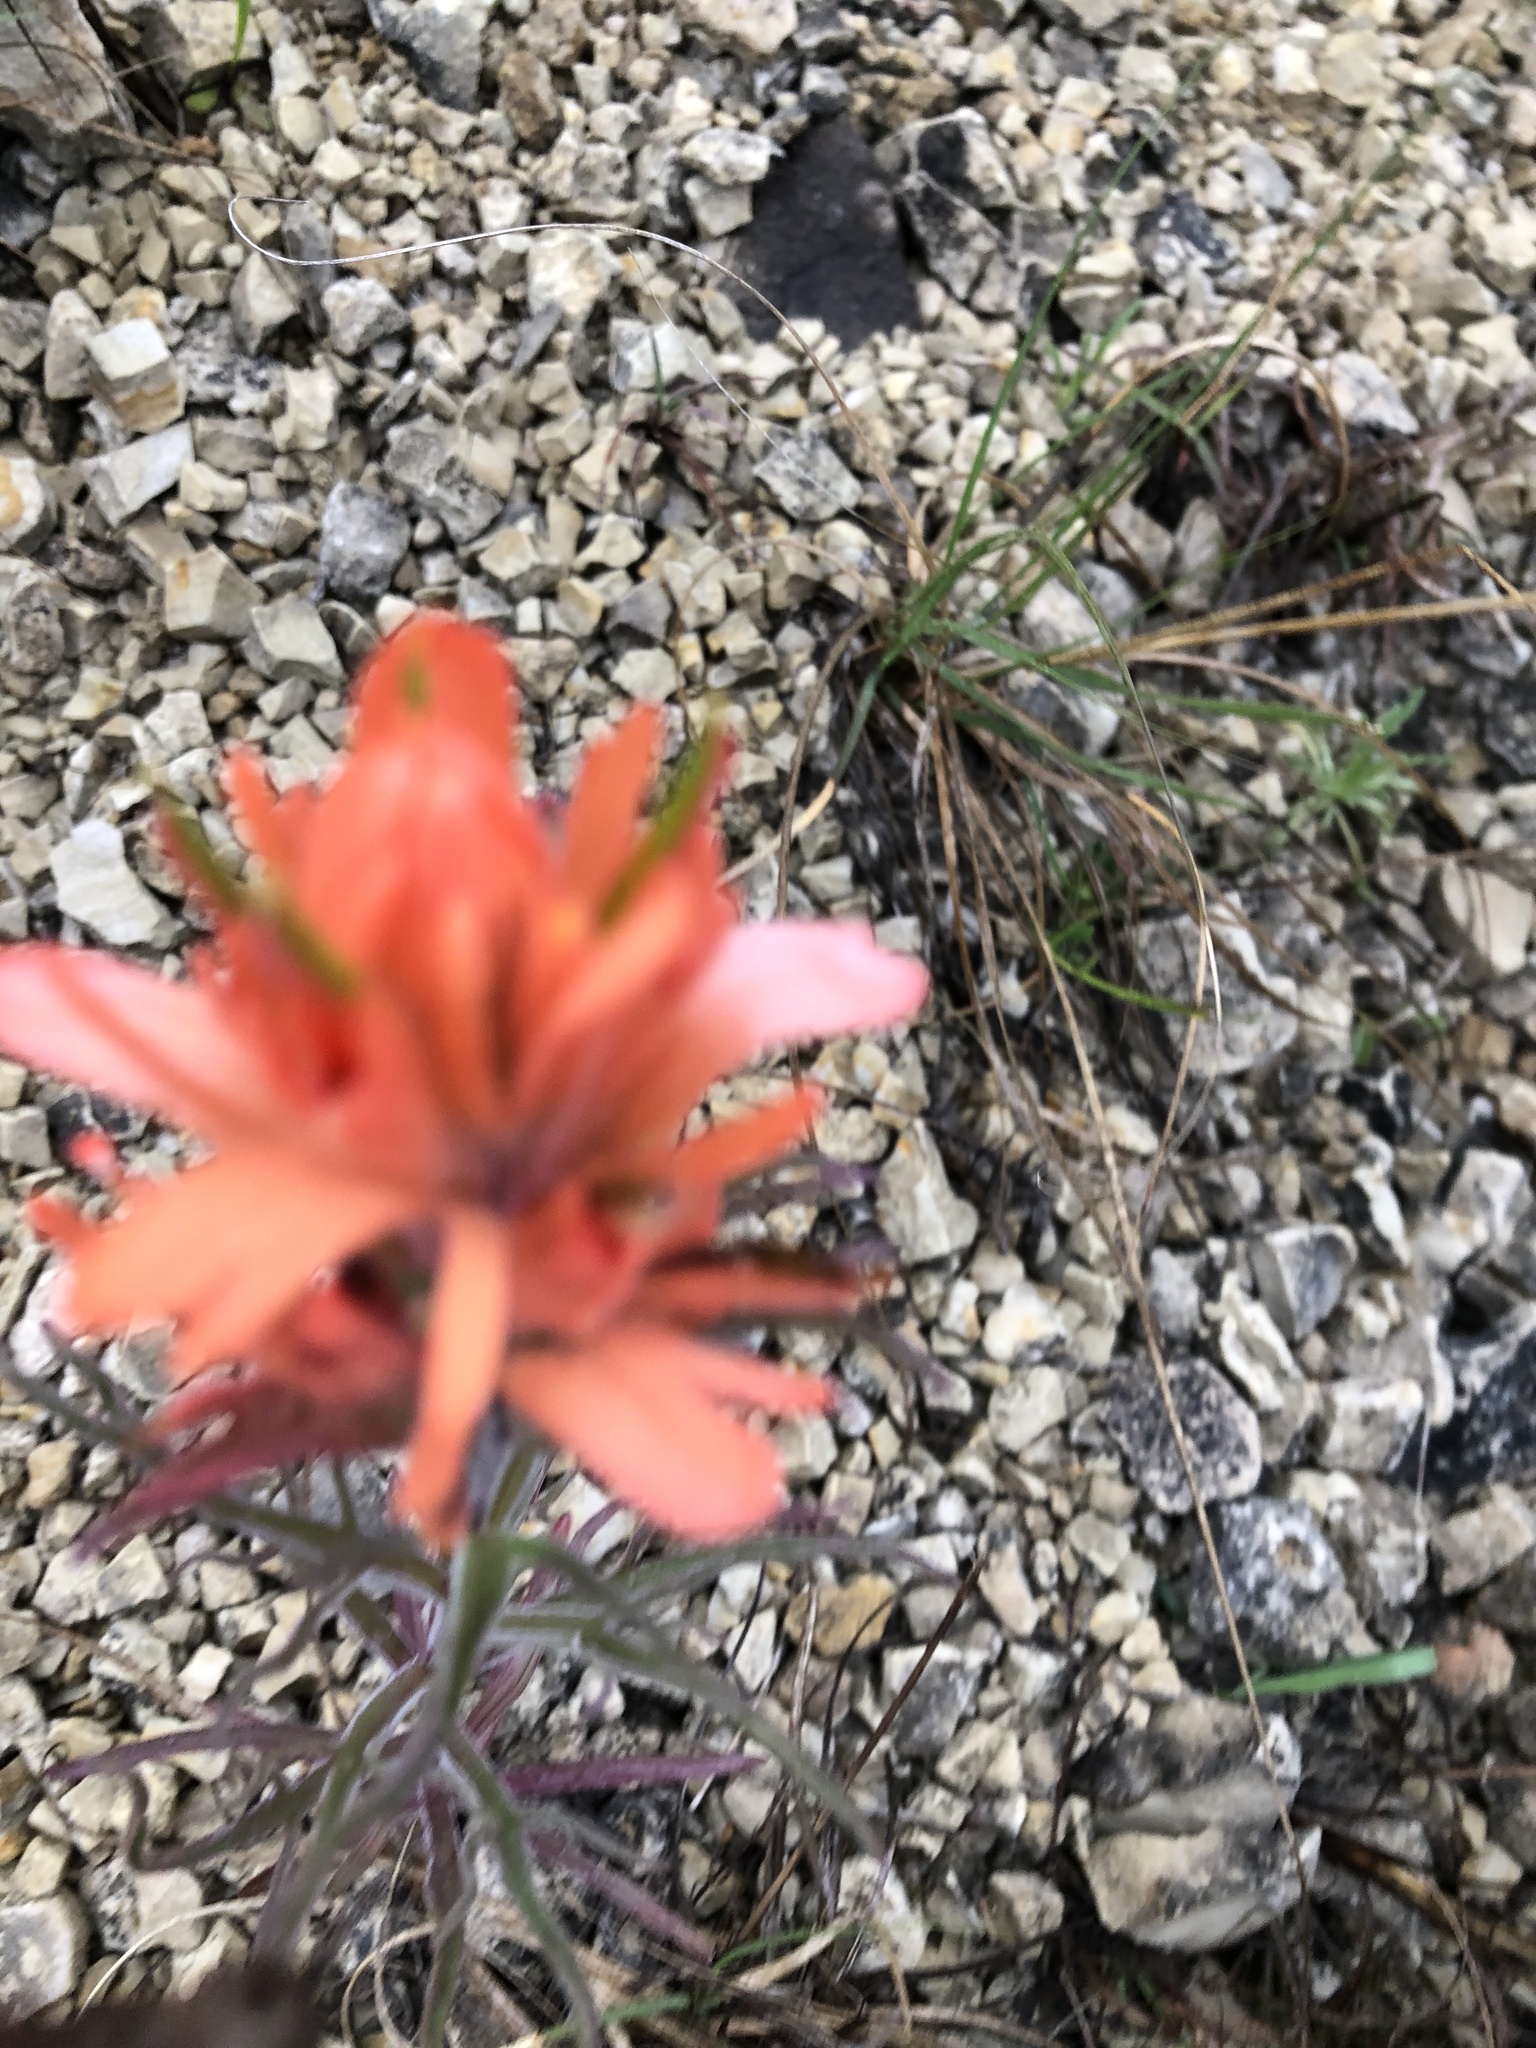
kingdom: Plantae
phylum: Tracheophyta
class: Magnoliopsida
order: Lamiales
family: Orobanchaceae
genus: Castilleja
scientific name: Castilleja lindheimeri
